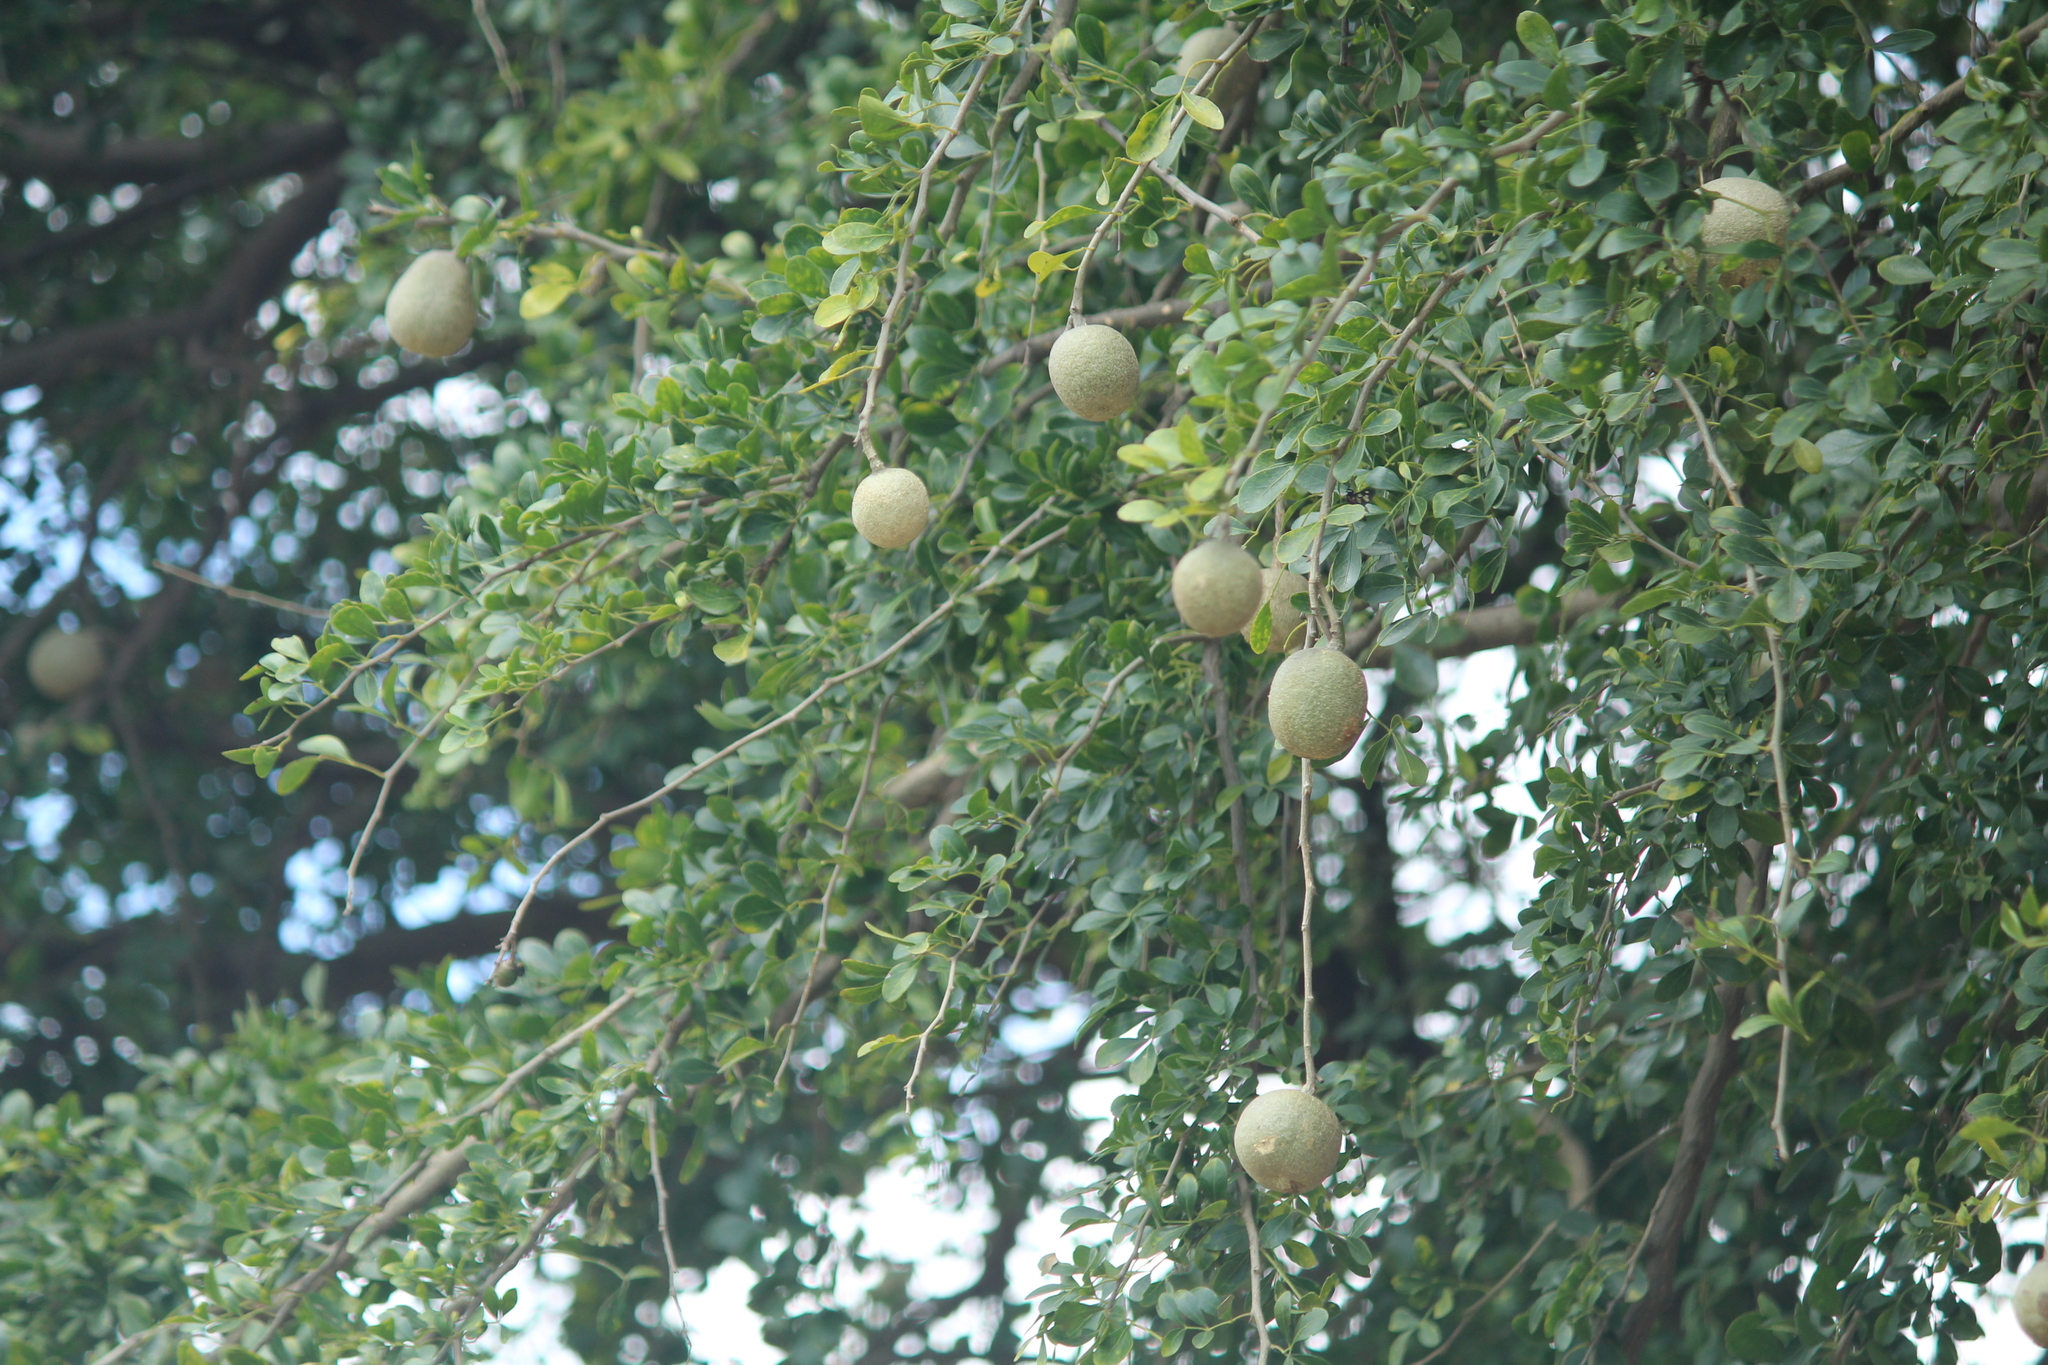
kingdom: Plantae
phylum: Tracheophyta
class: Magnoliopsida
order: Sapindales
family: Rutaceae
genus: Limonia
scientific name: Limonia acidissima
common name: Elephant apple
